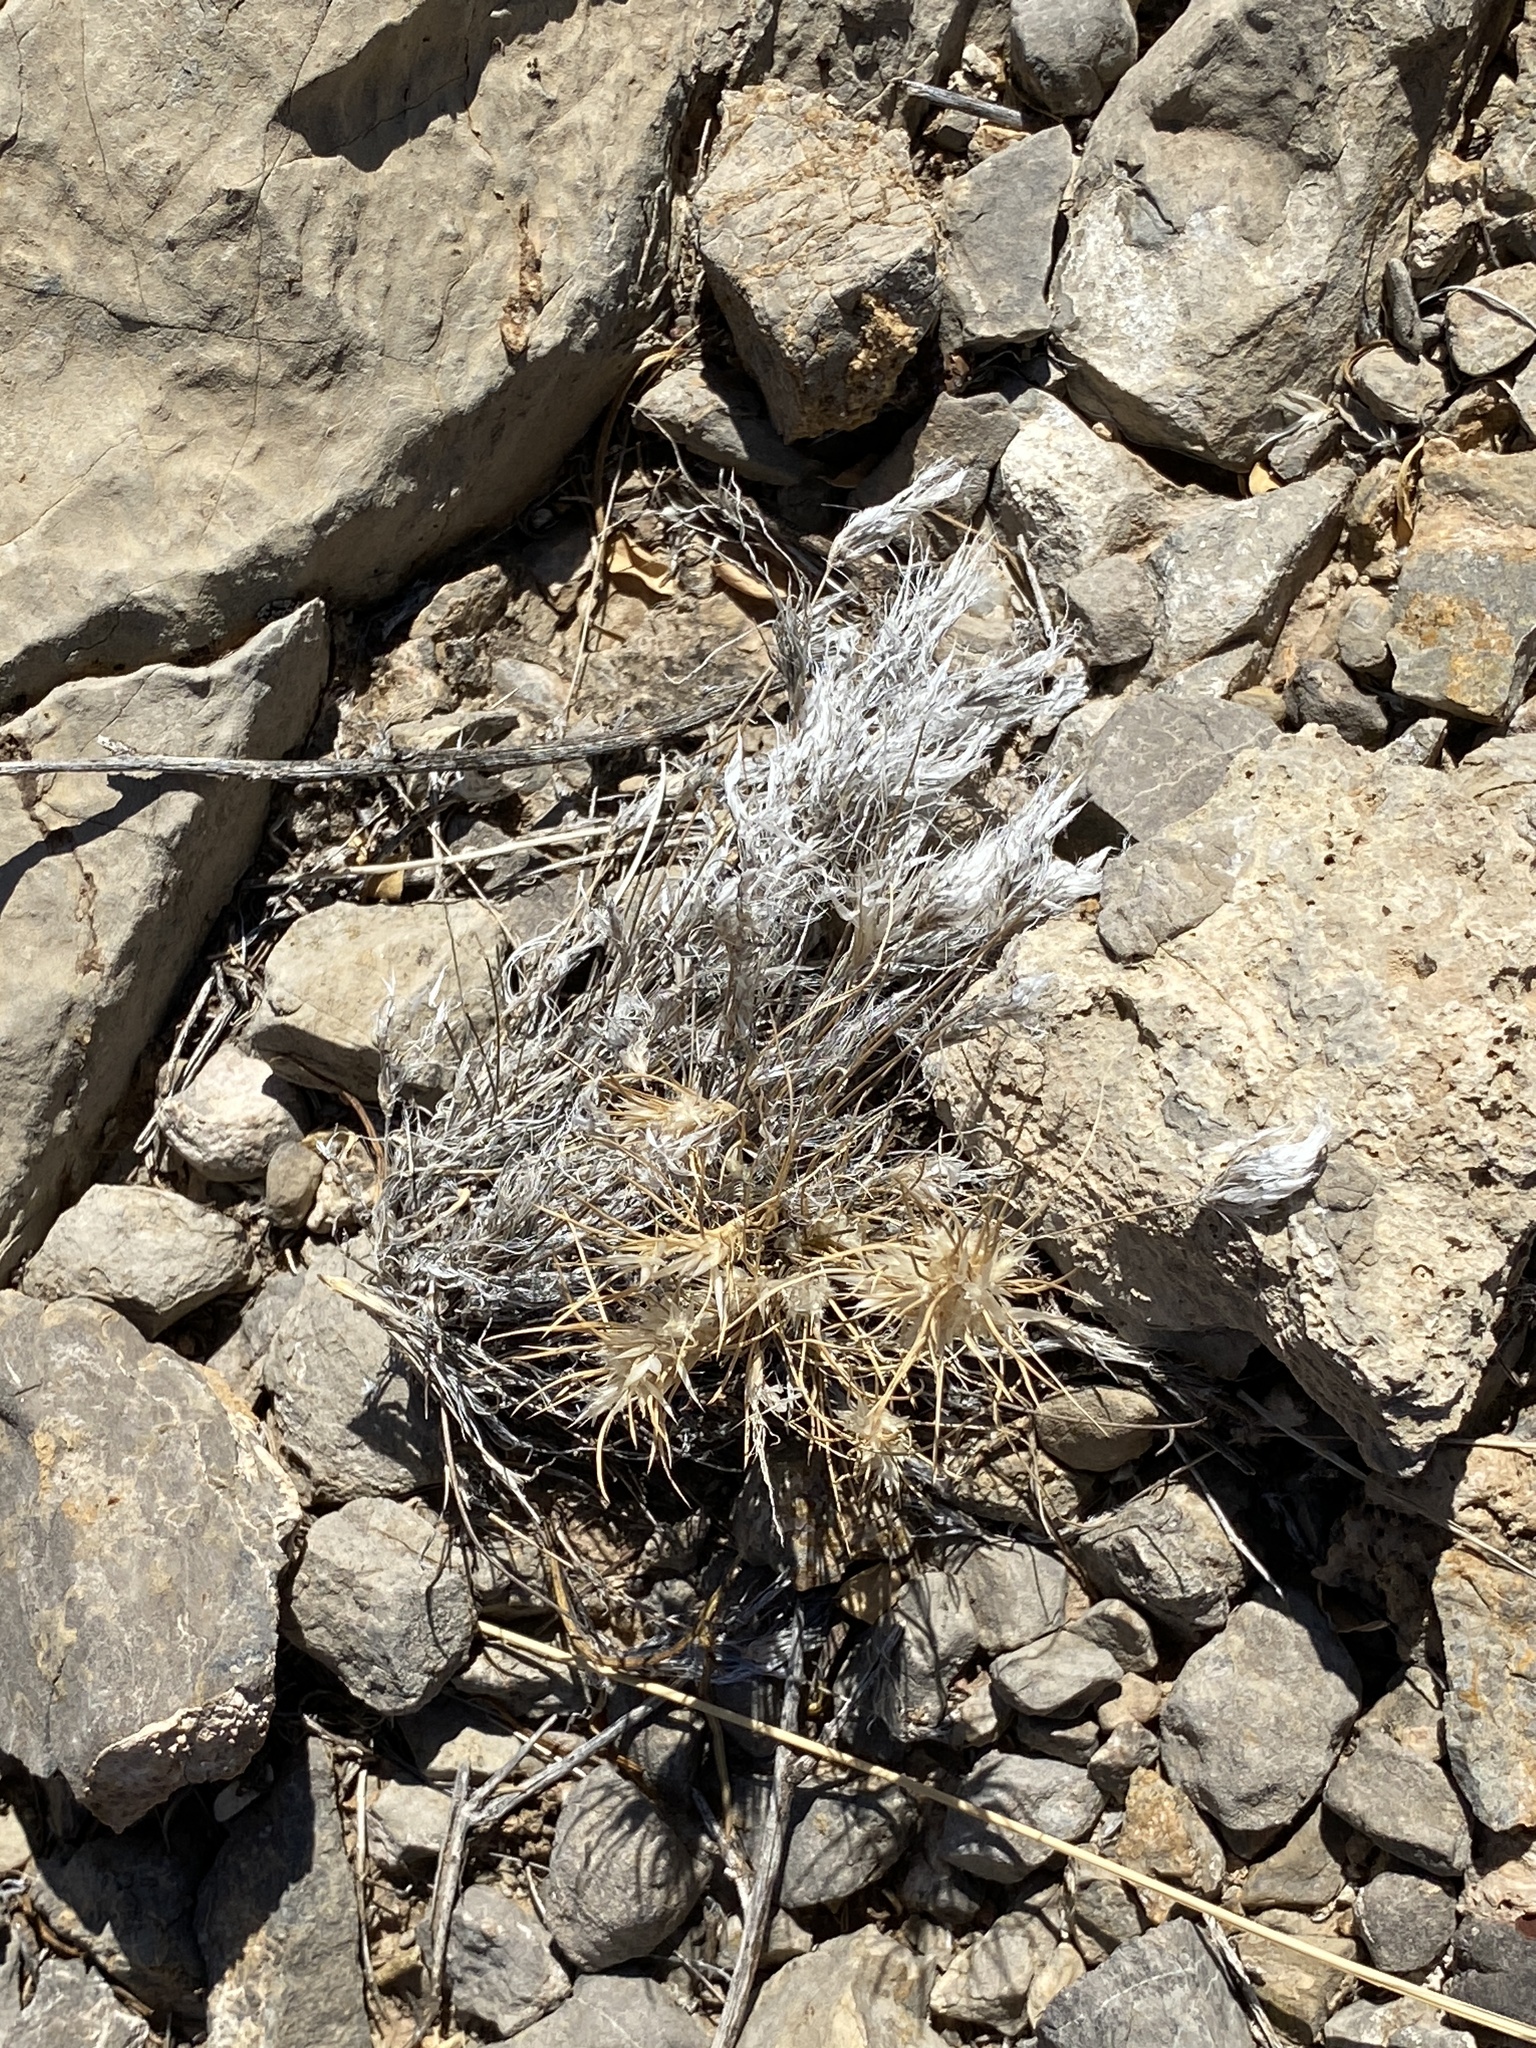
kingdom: Plantae
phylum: Tracheophyta
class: Liliopsida
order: Poales
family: Poaceae
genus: Dasyochloa
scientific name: Dasyochloa pulchella
